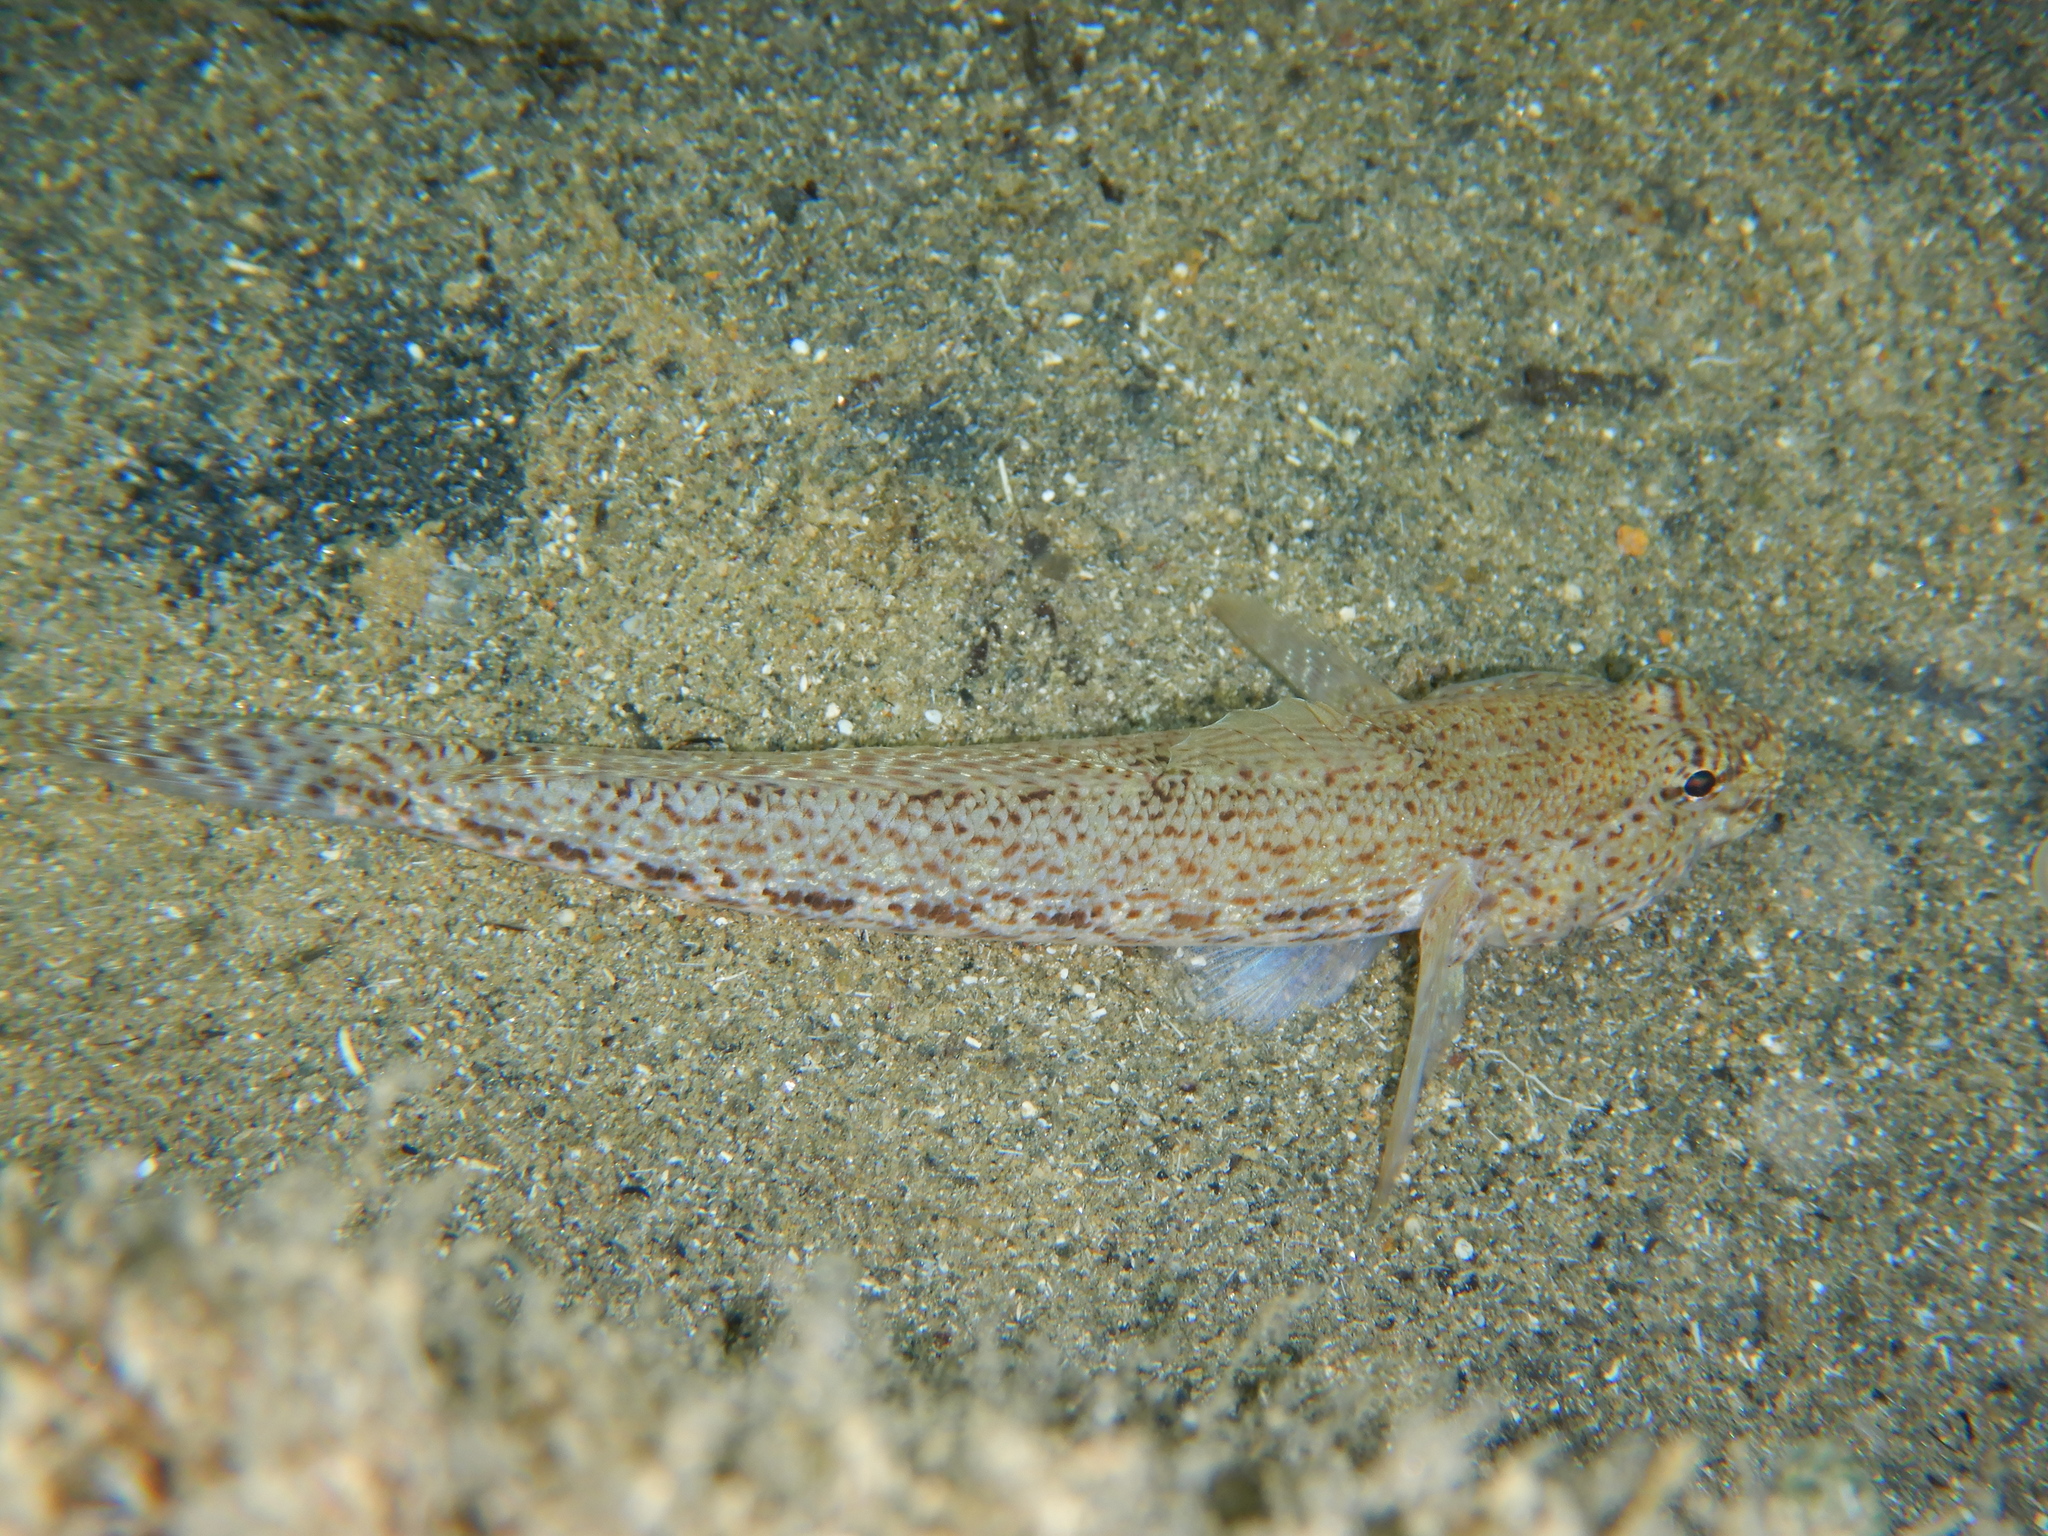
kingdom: Animalia
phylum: Chordata
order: Perciformes
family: Gobiidae
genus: Gobius
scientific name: Gobius incognitus
